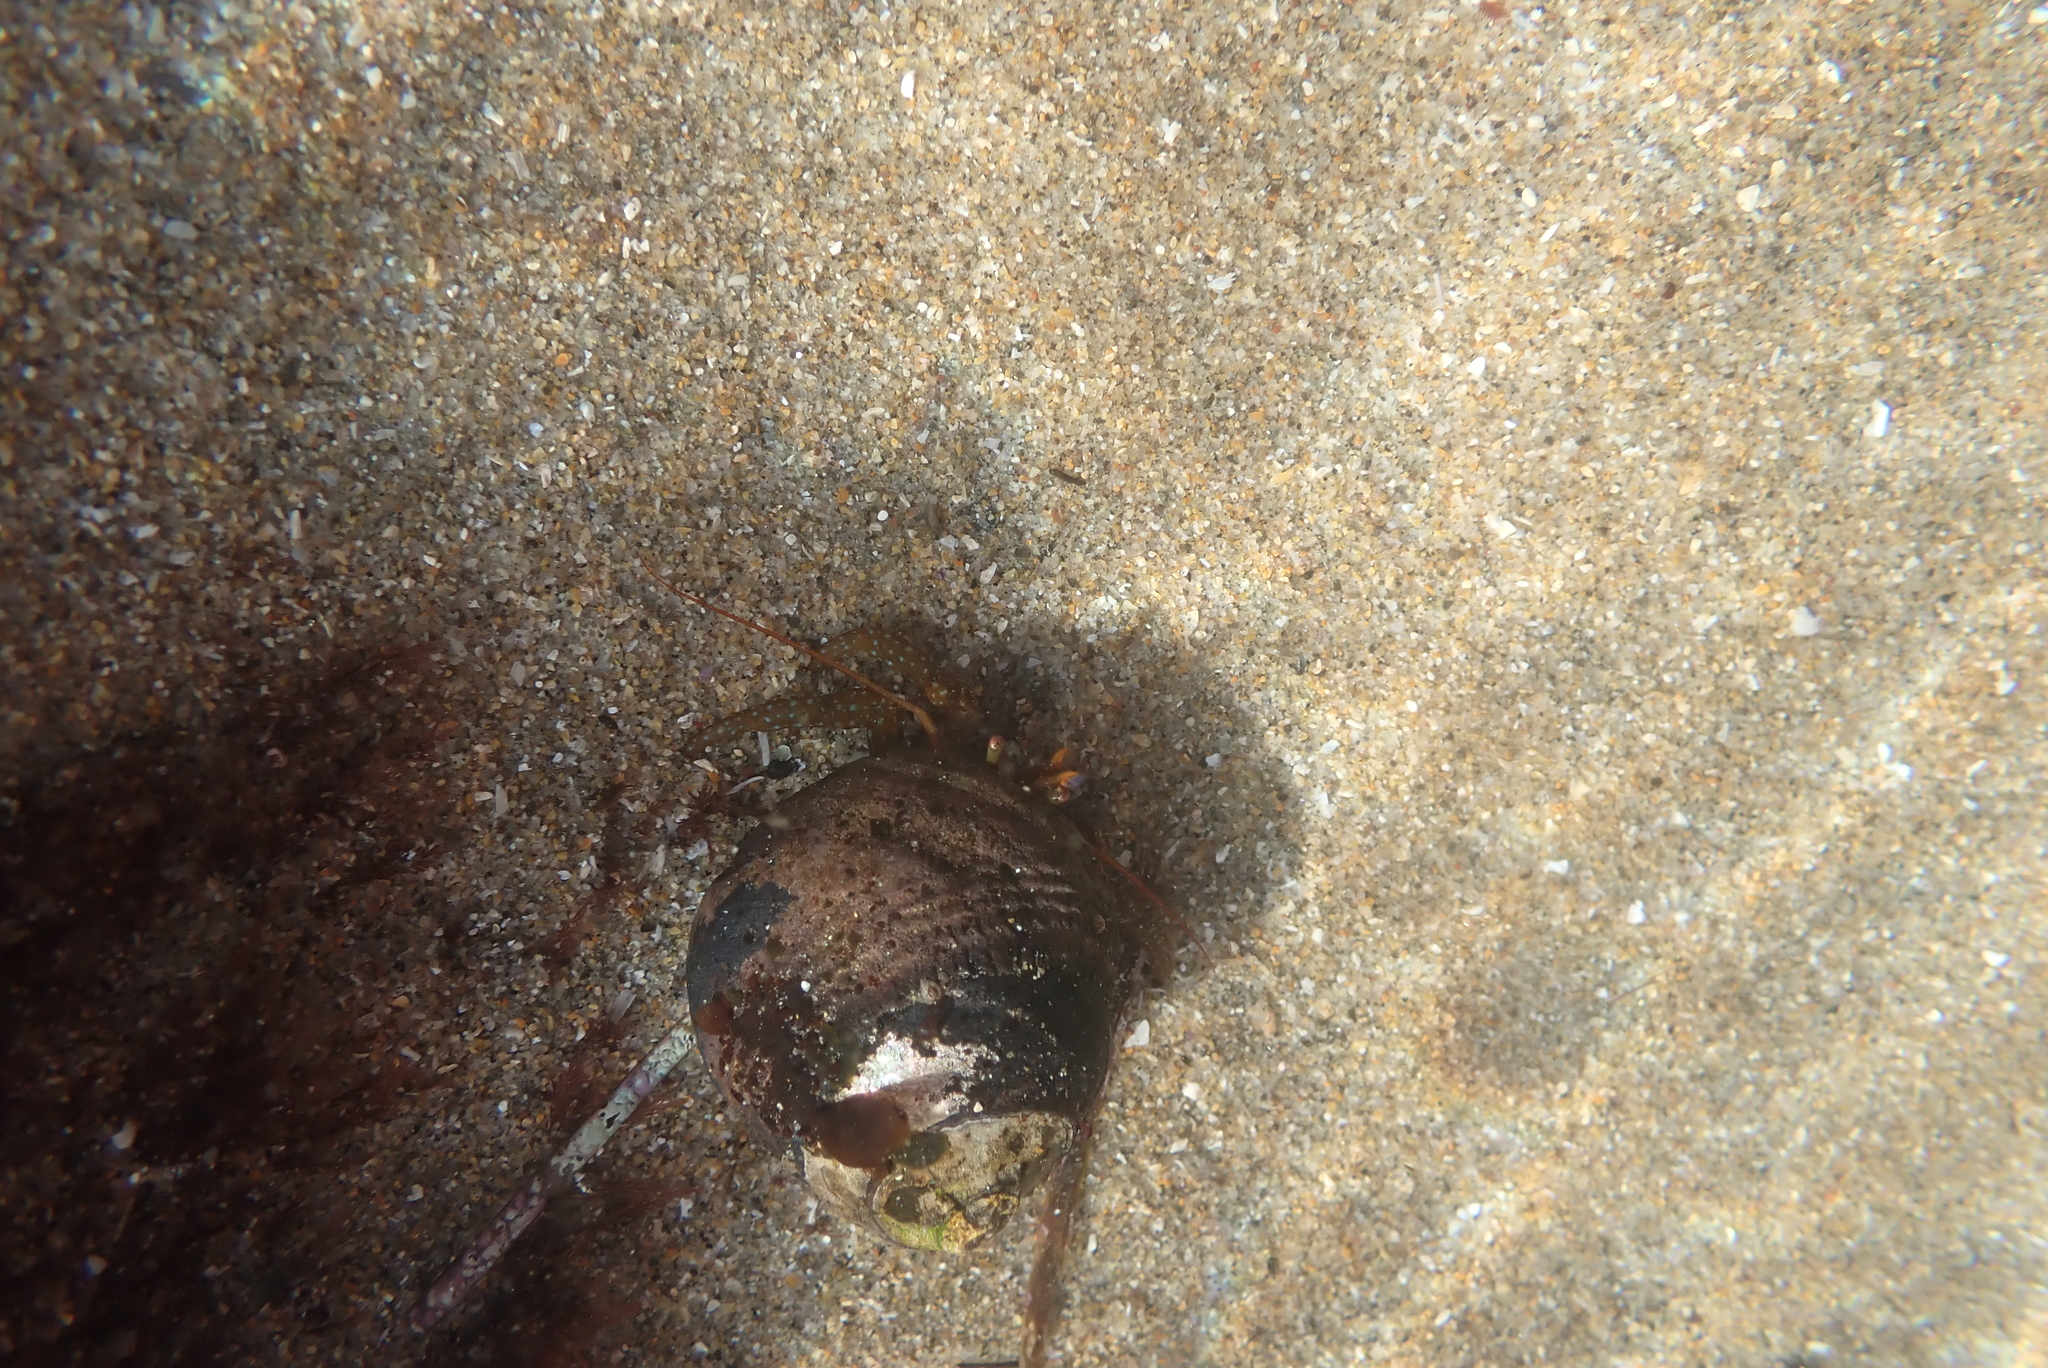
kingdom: Animalia
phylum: Arthropoda
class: Malacostraca
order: Decapoda
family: Paguridae
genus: Pagurus
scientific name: Pagurus granosimanus
